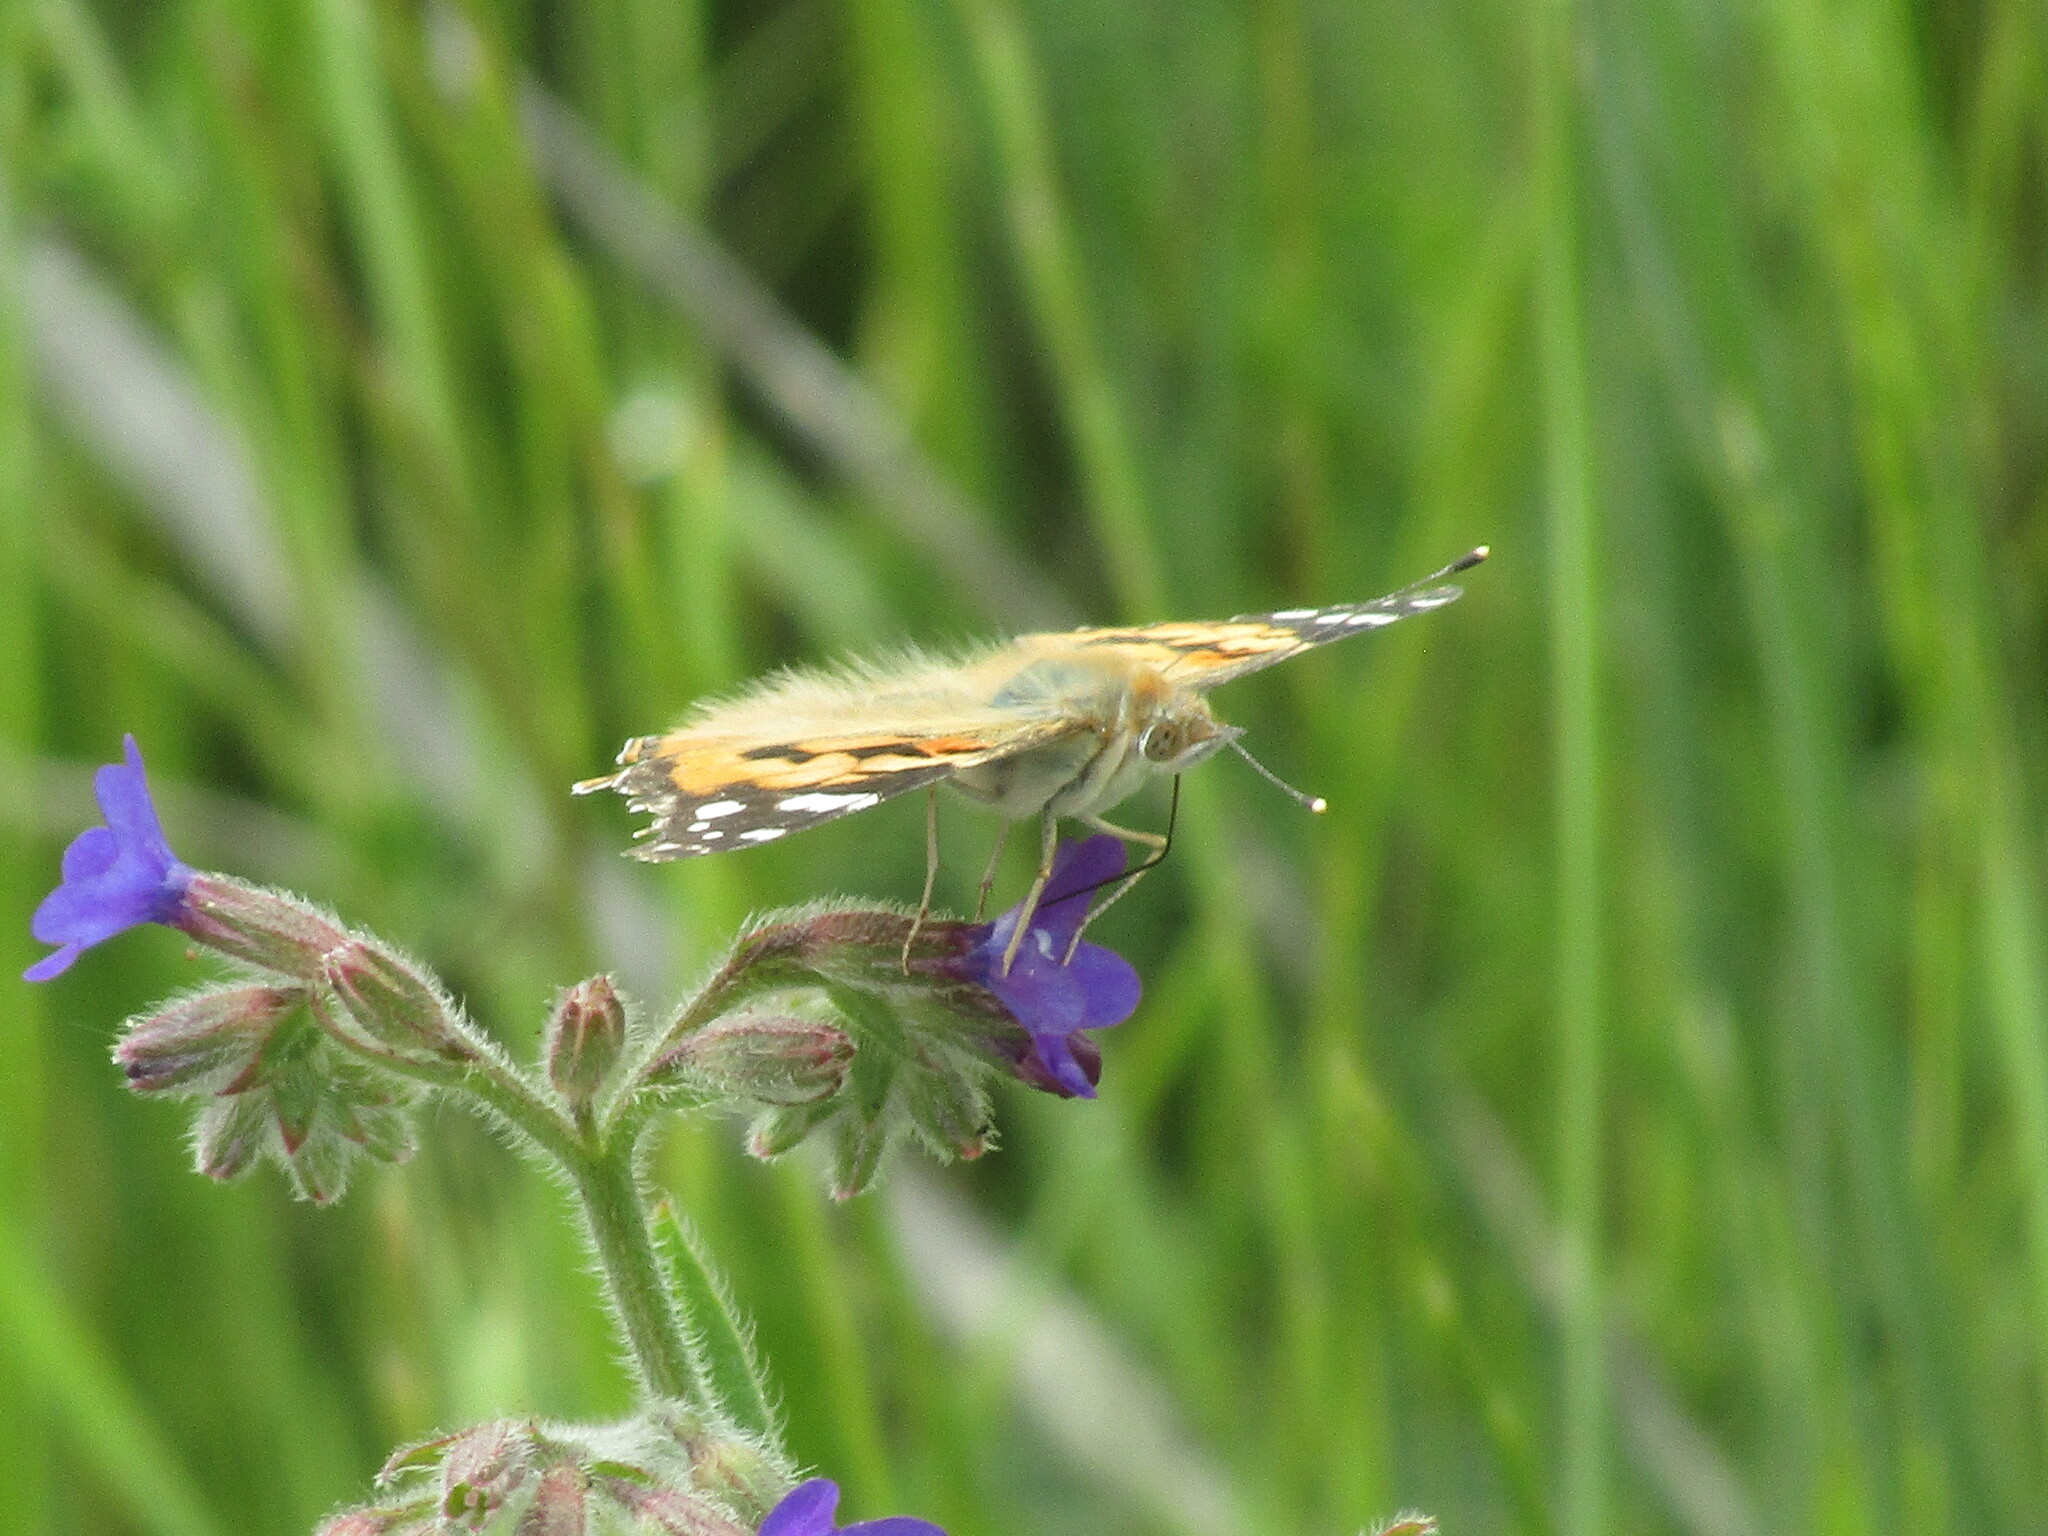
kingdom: Animalia
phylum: Arthropoda
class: Insecta
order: Lepidoptera
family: Nymphalidae
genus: Vanessa
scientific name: Vanessa cardui
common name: Painted lady
